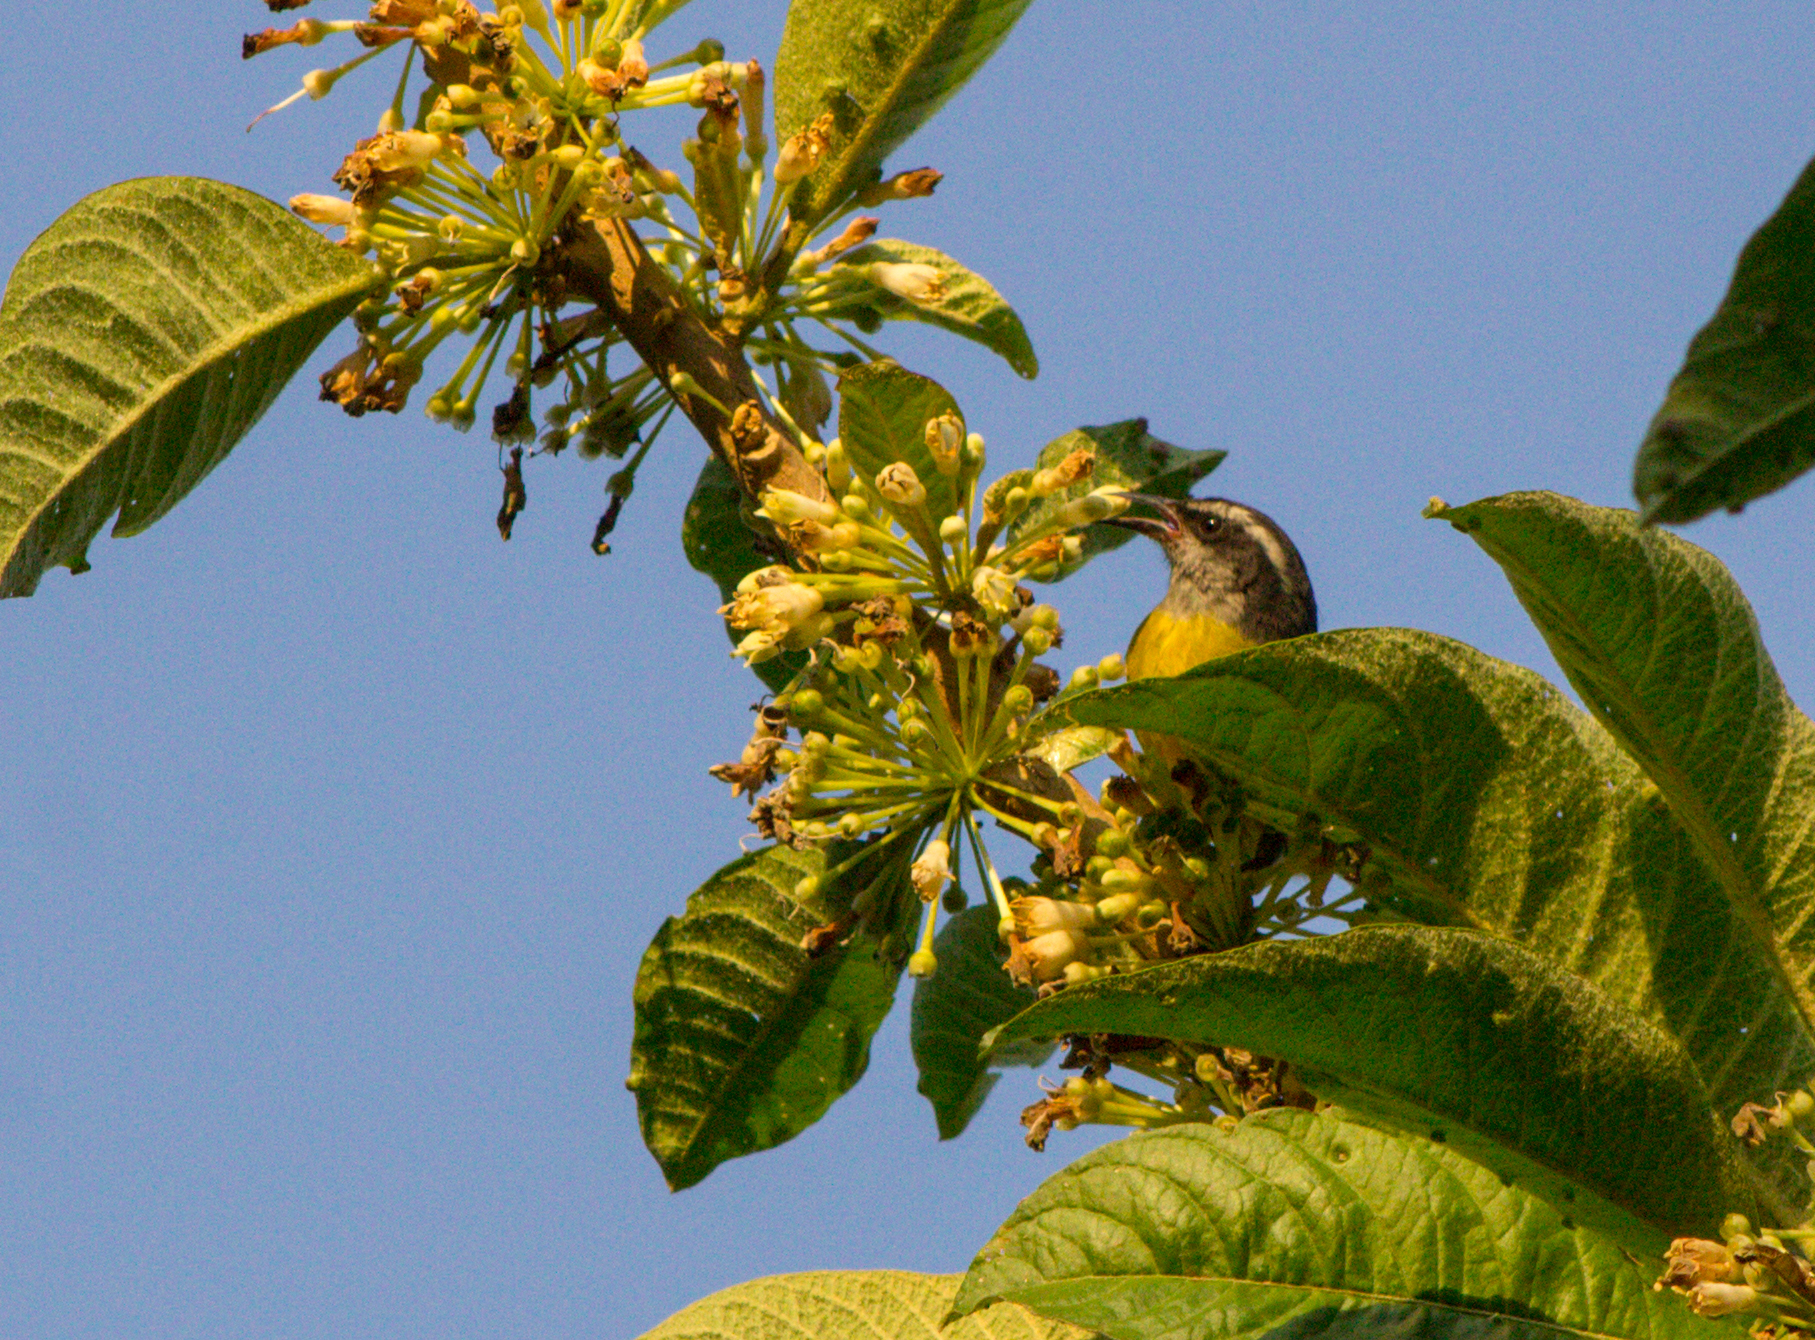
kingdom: Animalia
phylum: Chordata
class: Aves
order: Passeriformes
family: Thraupidae
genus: Coereba
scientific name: Coereba flaveola
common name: Bananaquit
